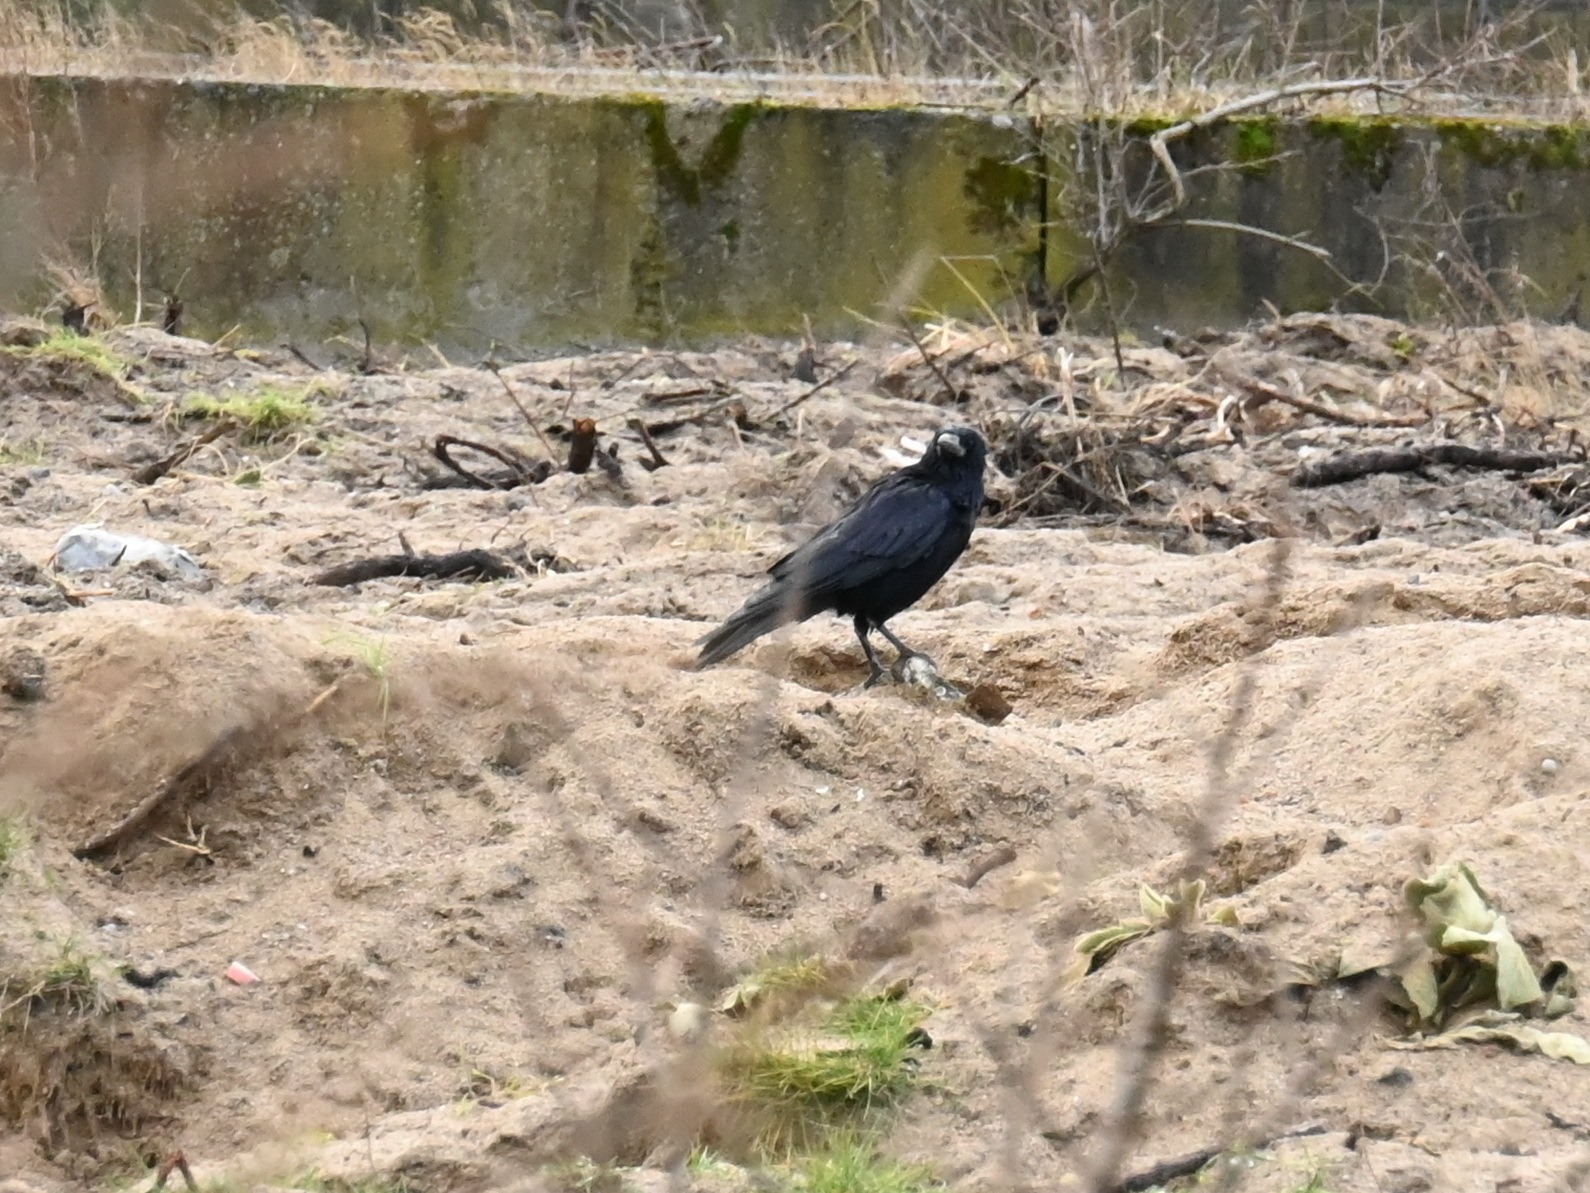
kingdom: Animalia
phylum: Chordata
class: Aves
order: Passeriformes
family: Corvidae
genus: Corvus
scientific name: Corvus frugilegus
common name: Rook
